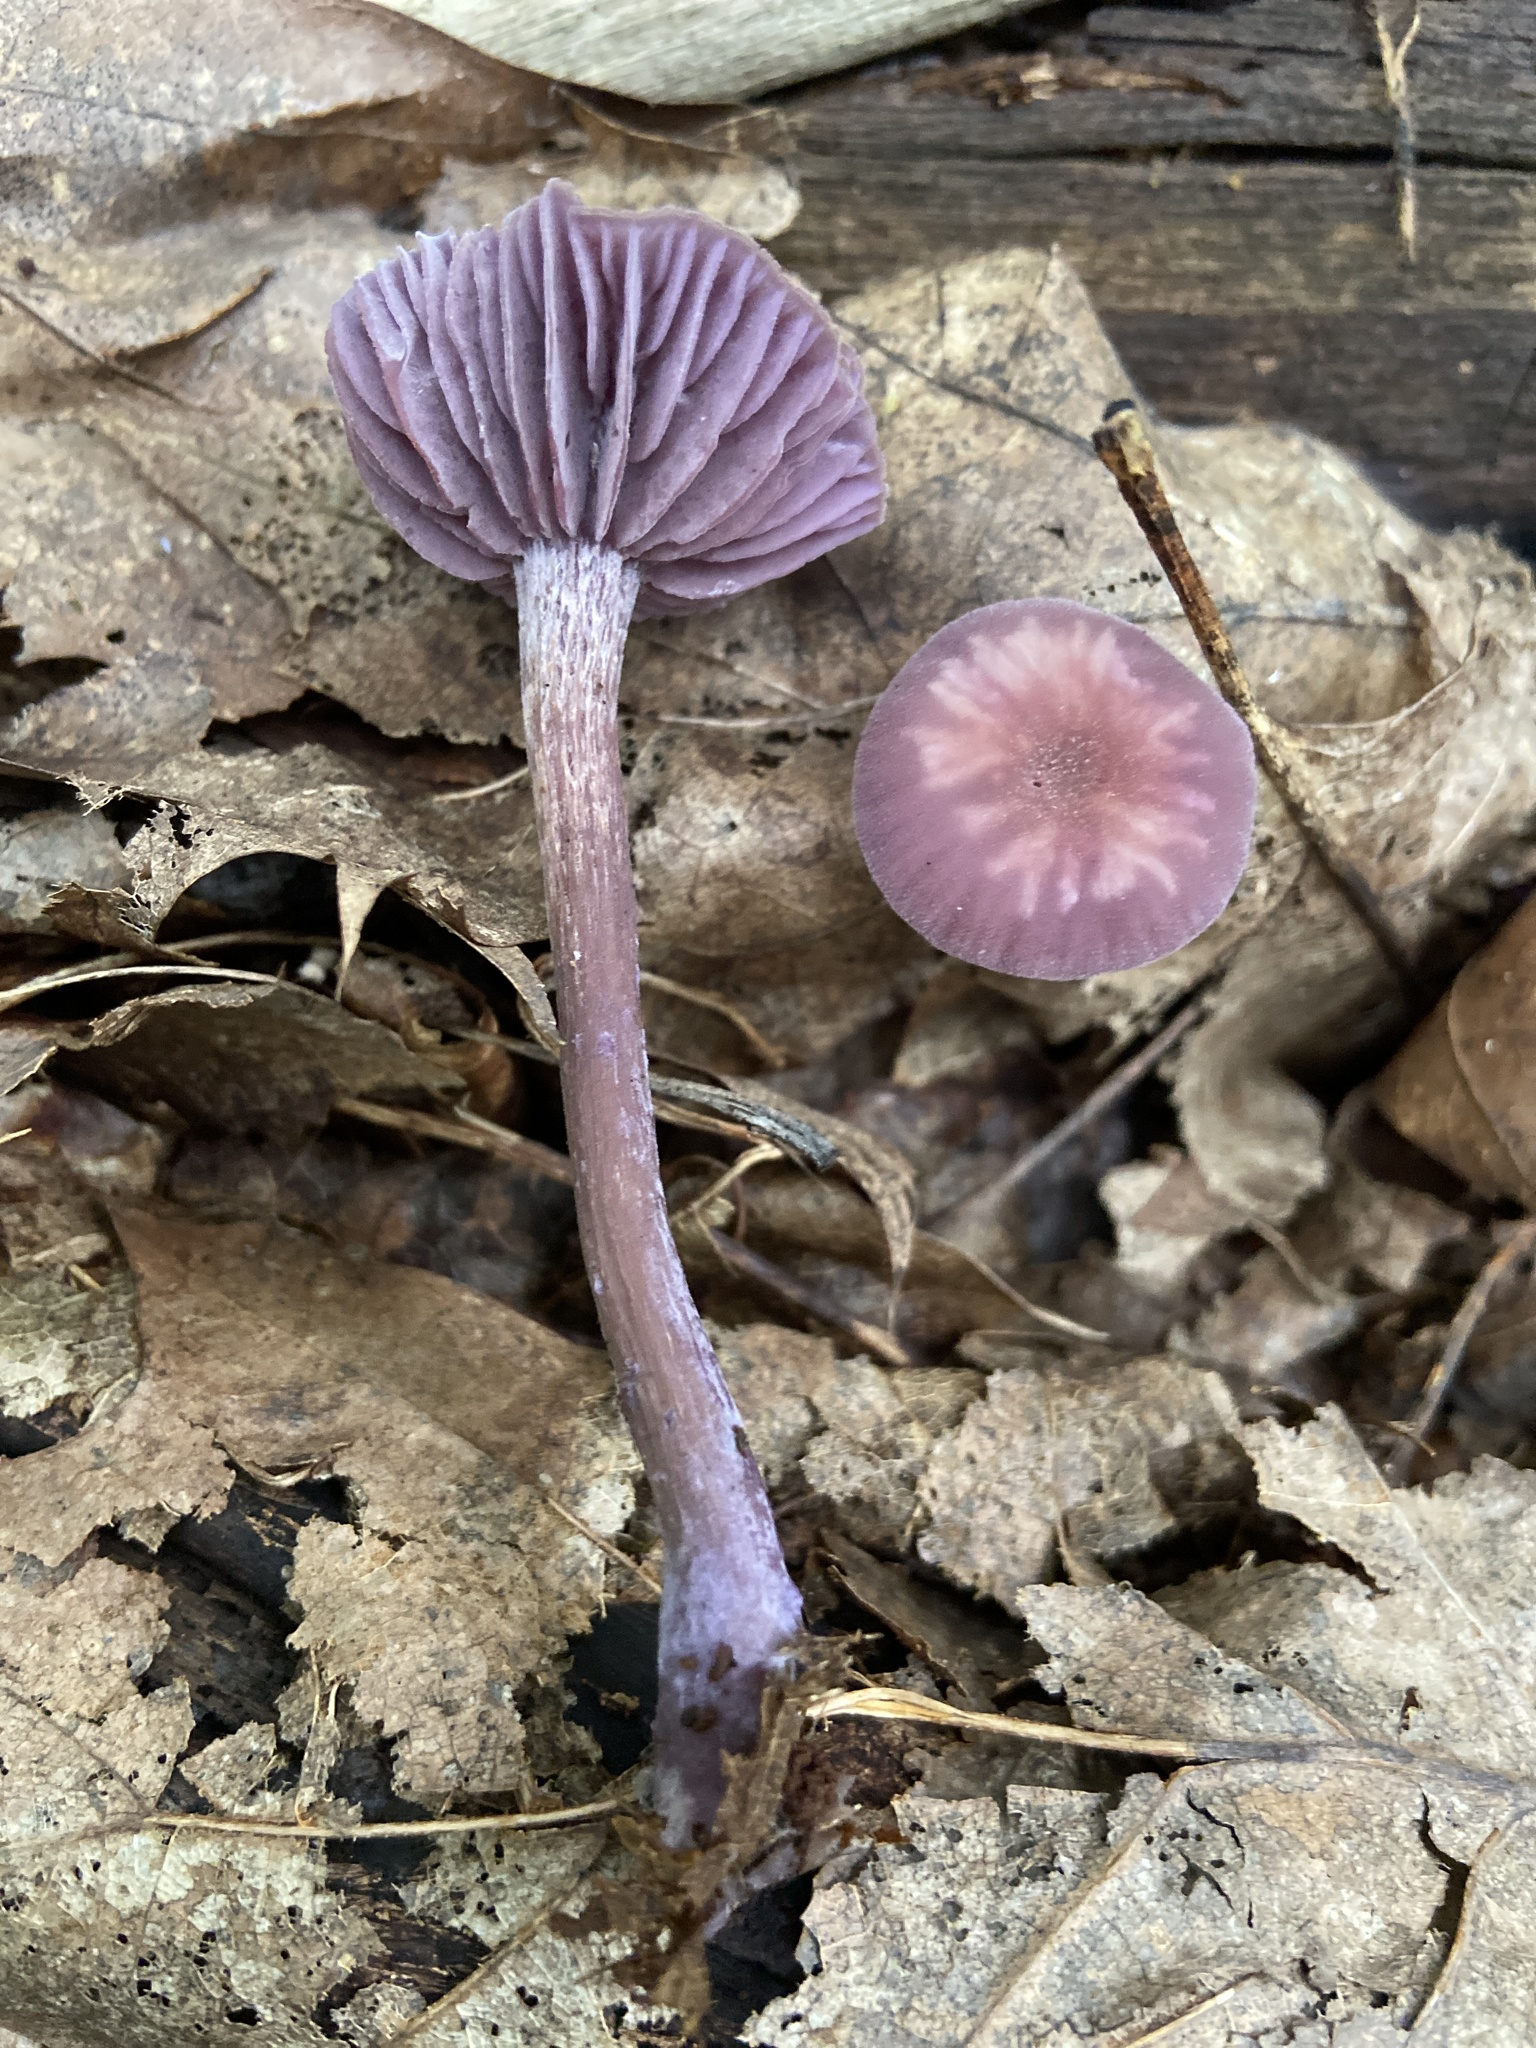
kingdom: Fungi
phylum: Basidiomycota
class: Agaricomycetes
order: Agaricales
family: Hydnangiaceae
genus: Laccaria
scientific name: Laccaria amethystina
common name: Amethyst deceiver
